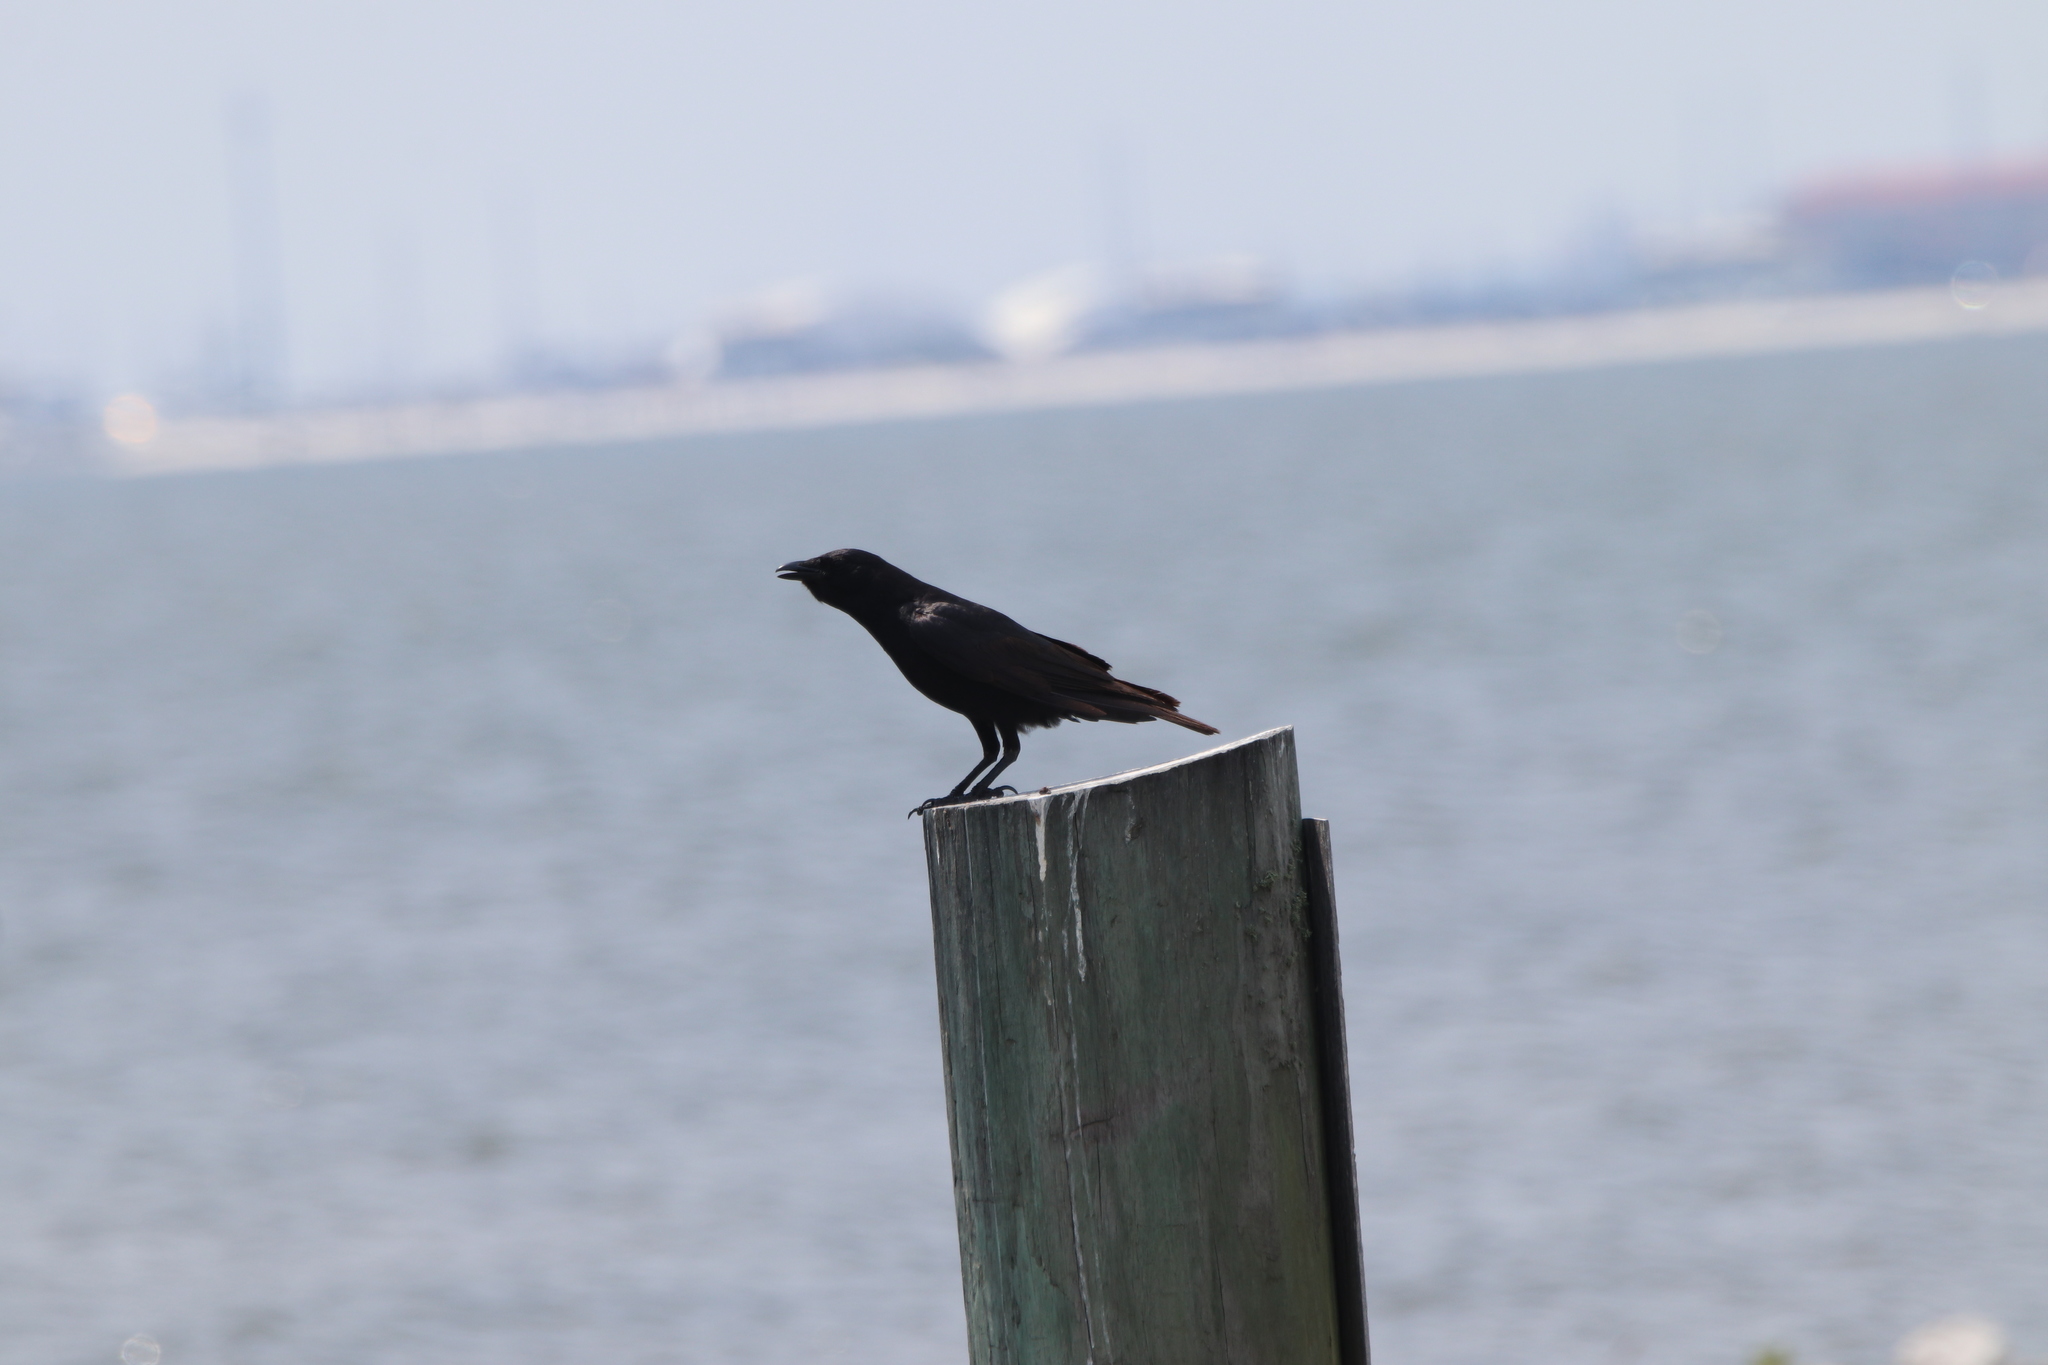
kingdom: Animalia
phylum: Chordata
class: Aves
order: Passeriformes
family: Corvidae
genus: Corvus
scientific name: Corvus ossifragus
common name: Fish crow
